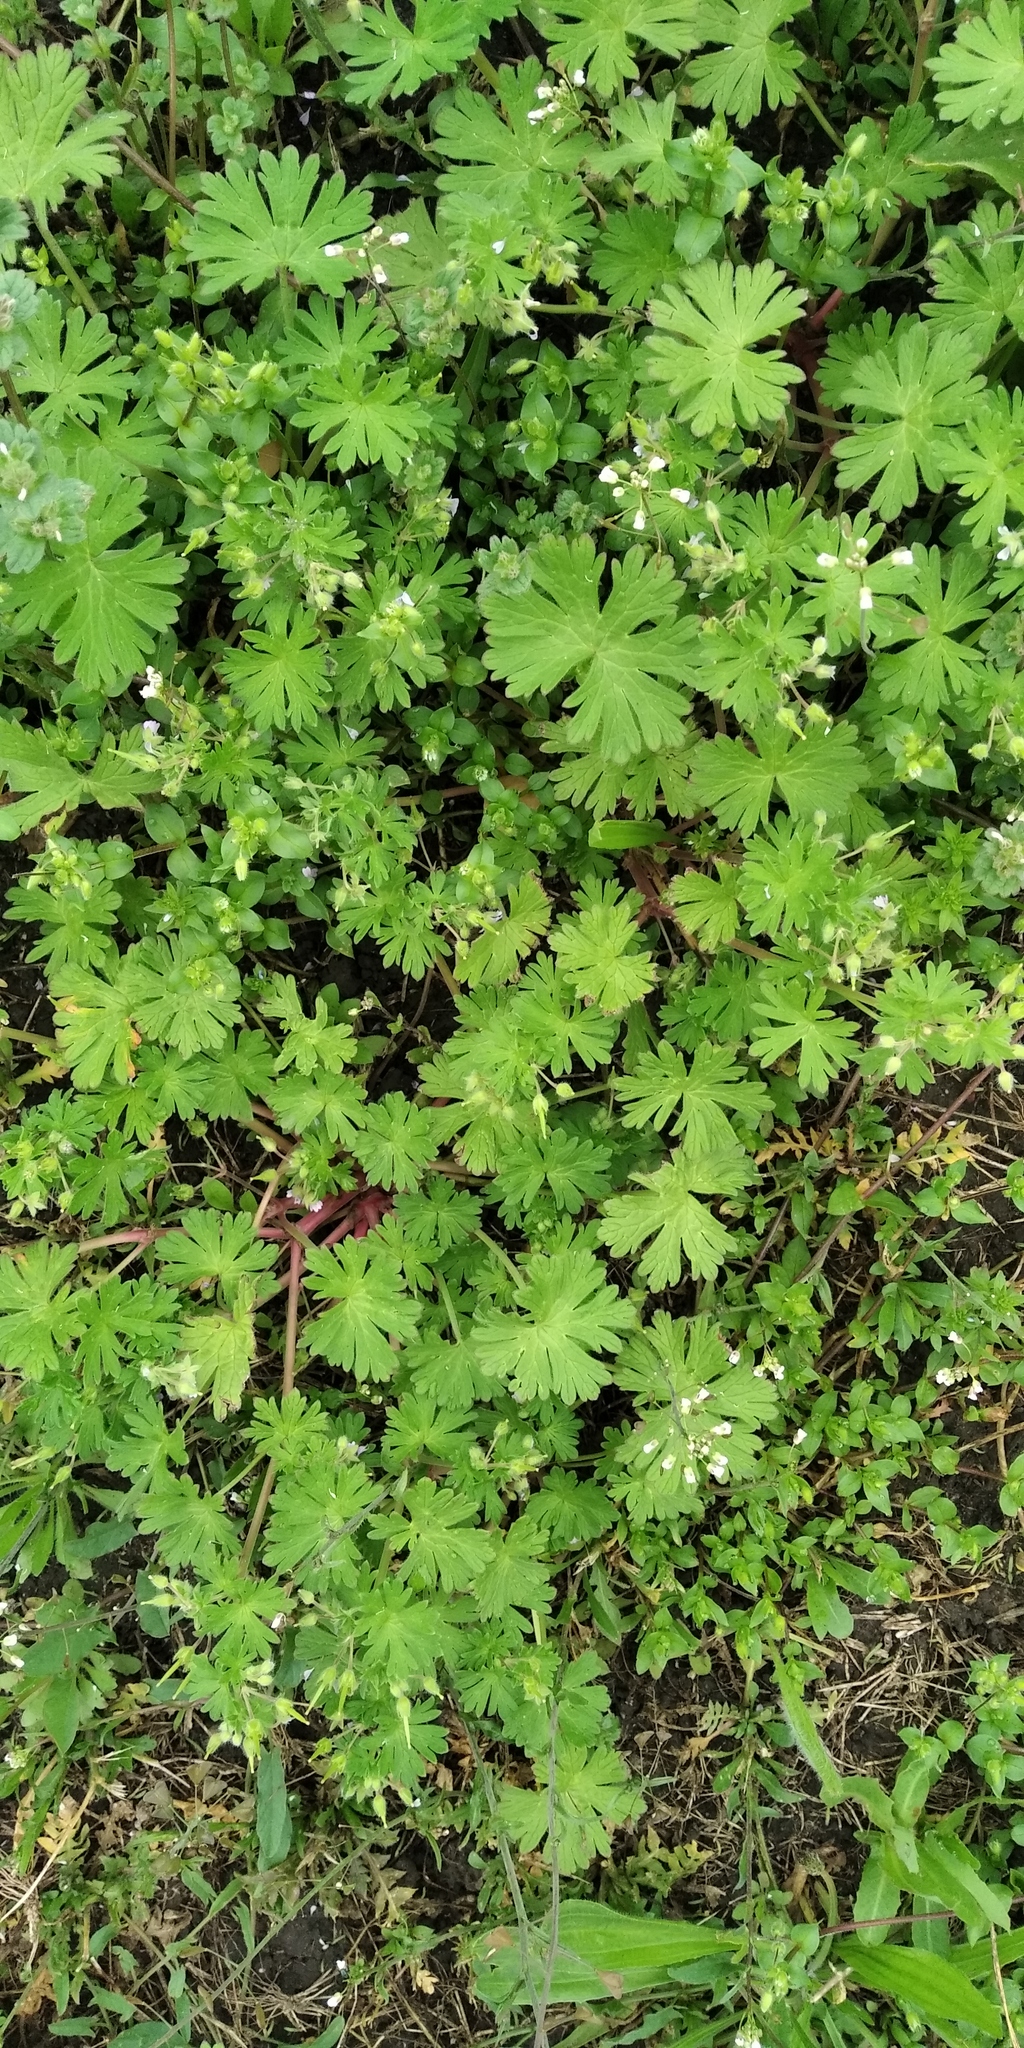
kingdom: Plantae
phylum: Tracheophyta
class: Magnoliopsida
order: Geraniales
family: Geraniaceae
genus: Geranium
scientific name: Geranium pusillum
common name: Small geranium
